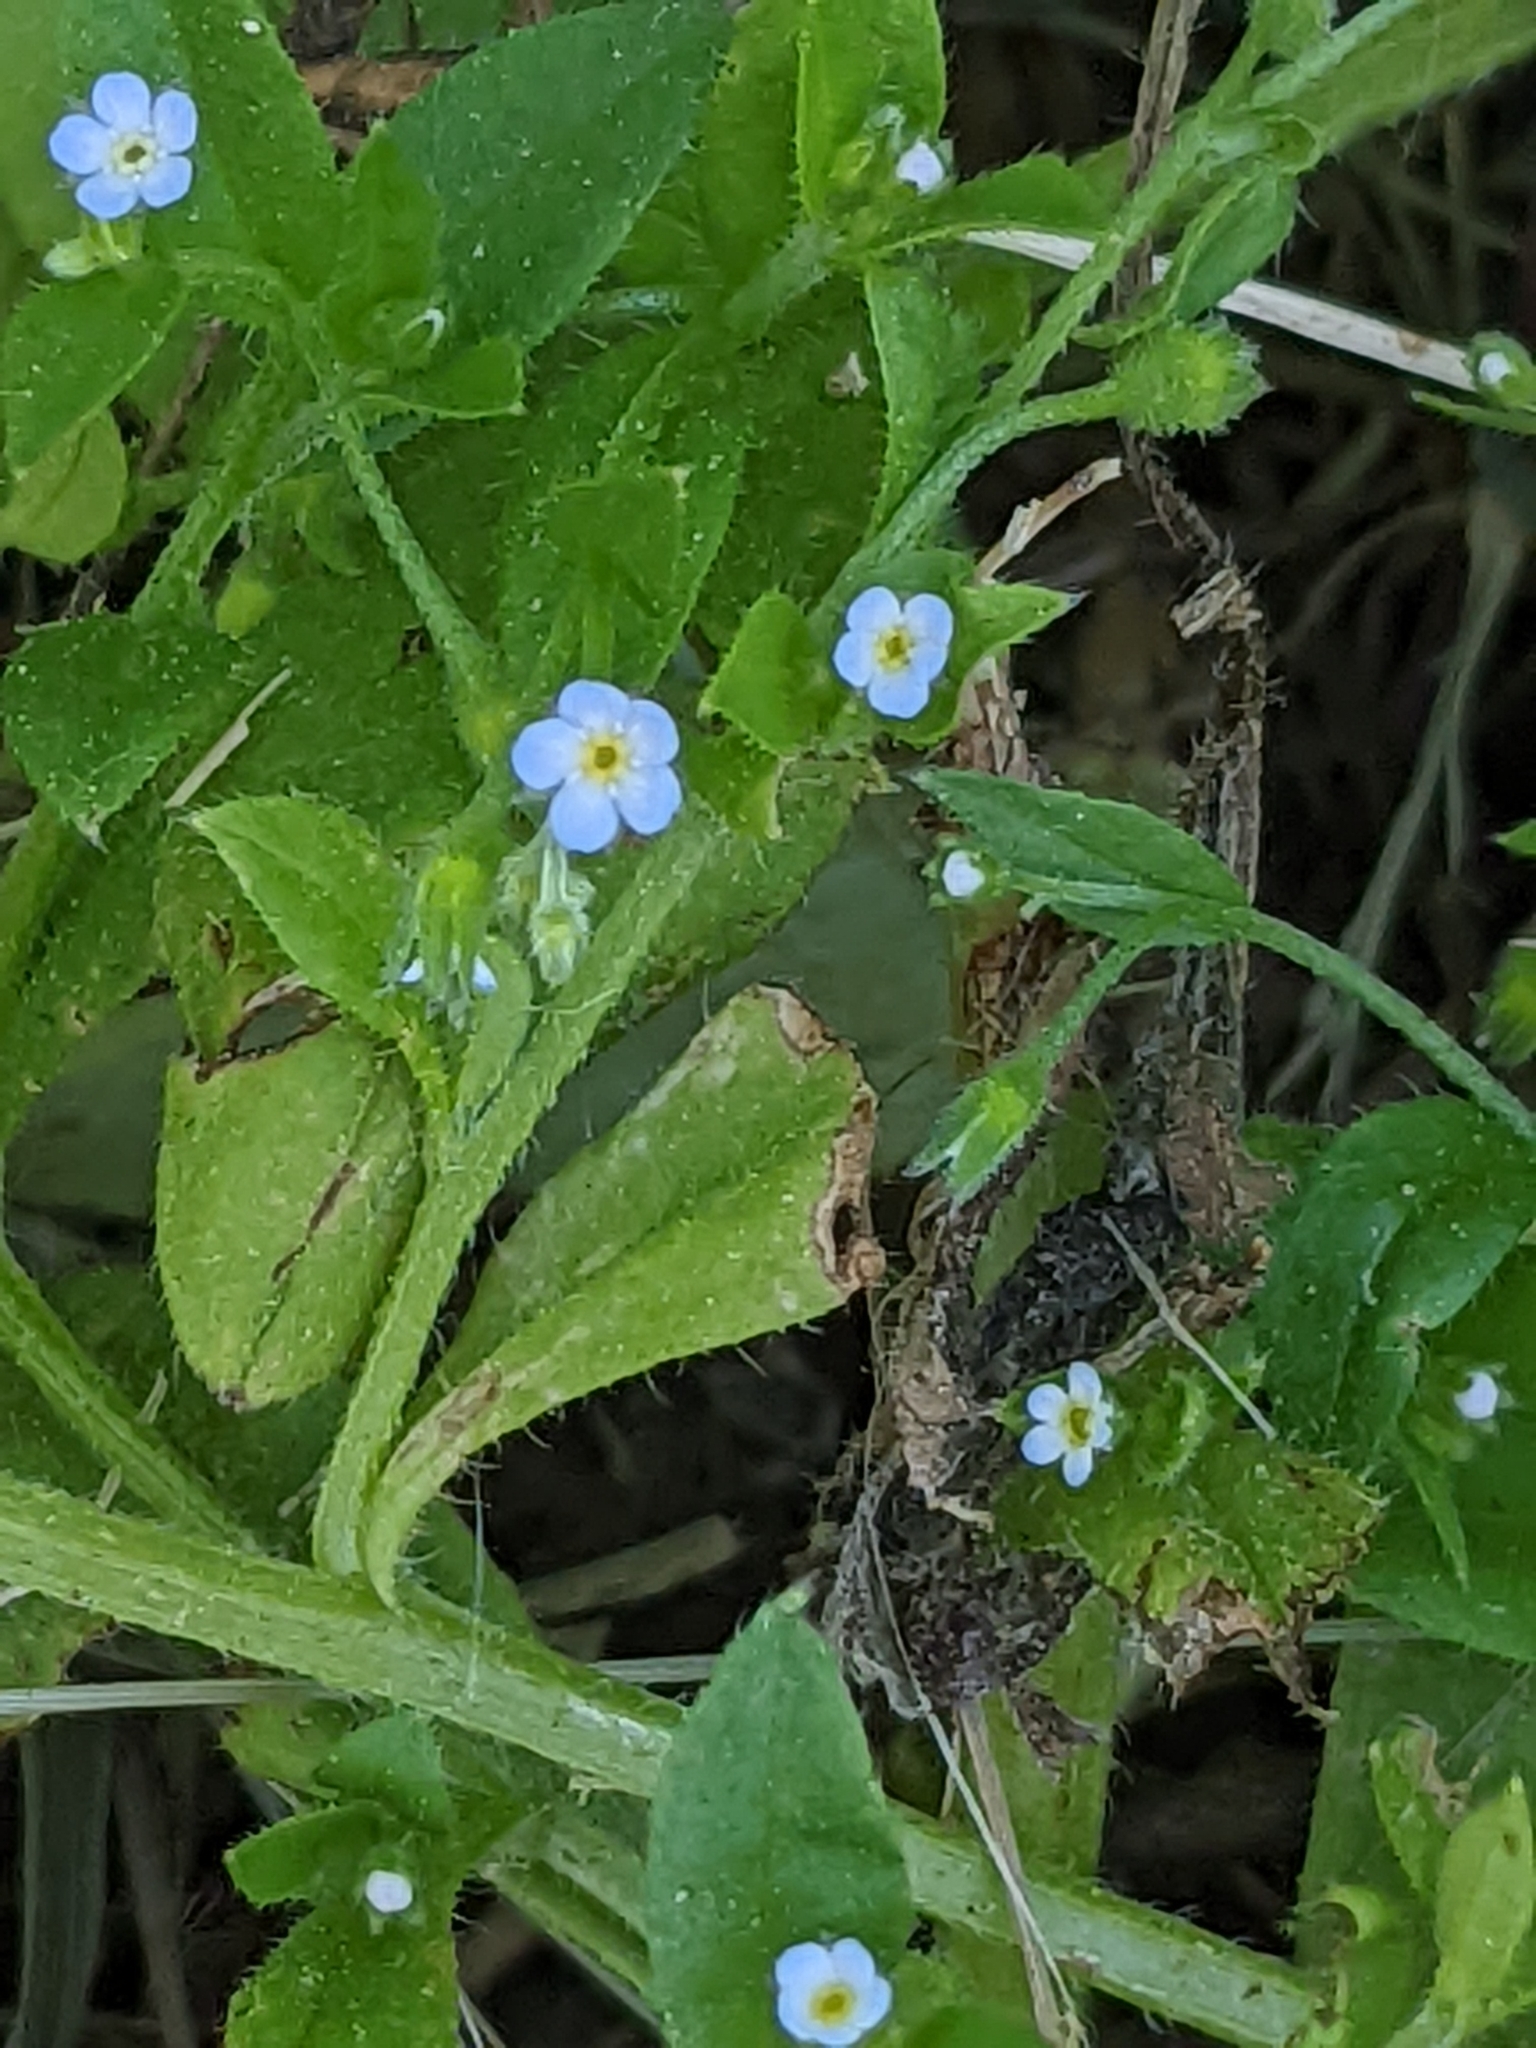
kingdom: Plantae
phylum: Tracheophyta
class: Magnoliopsida
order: Boraginales
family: Boraginaceae
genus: Myosotis
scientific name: Myosotis sparsiflora
